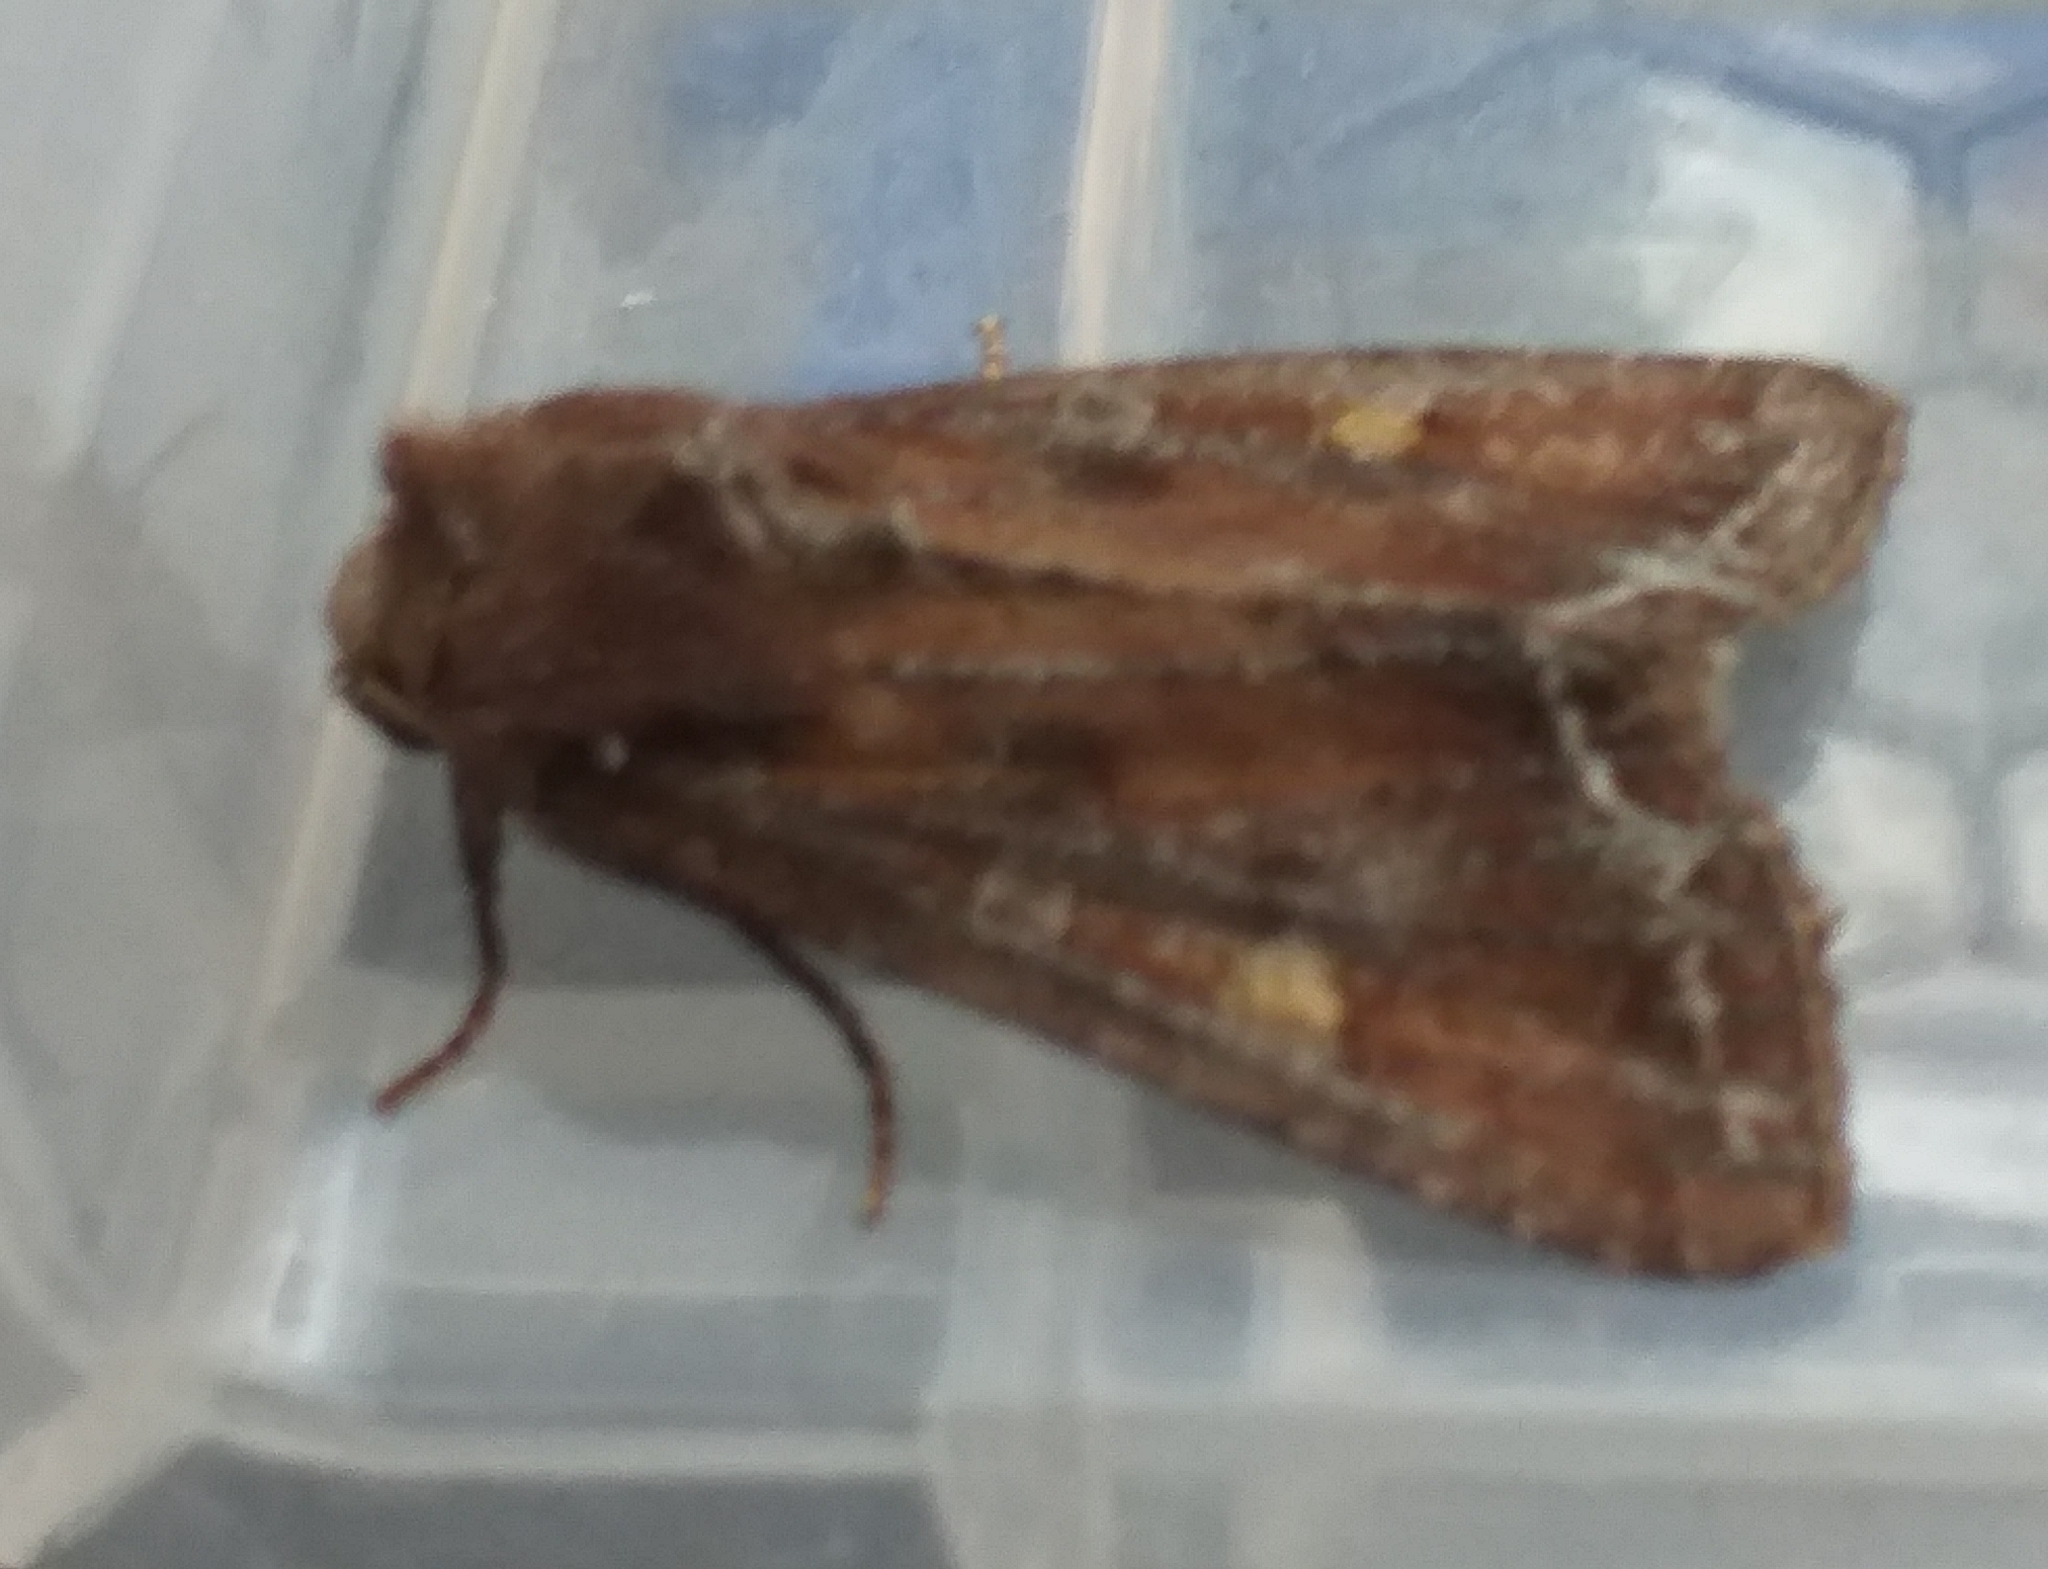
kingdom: Animalia
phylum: Arthropoda
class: Insecta
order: Lepidoptera
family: Noctuidae
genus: Lacanobia
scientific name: Lacanobia oleracea
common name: Bright-line brown-eye
